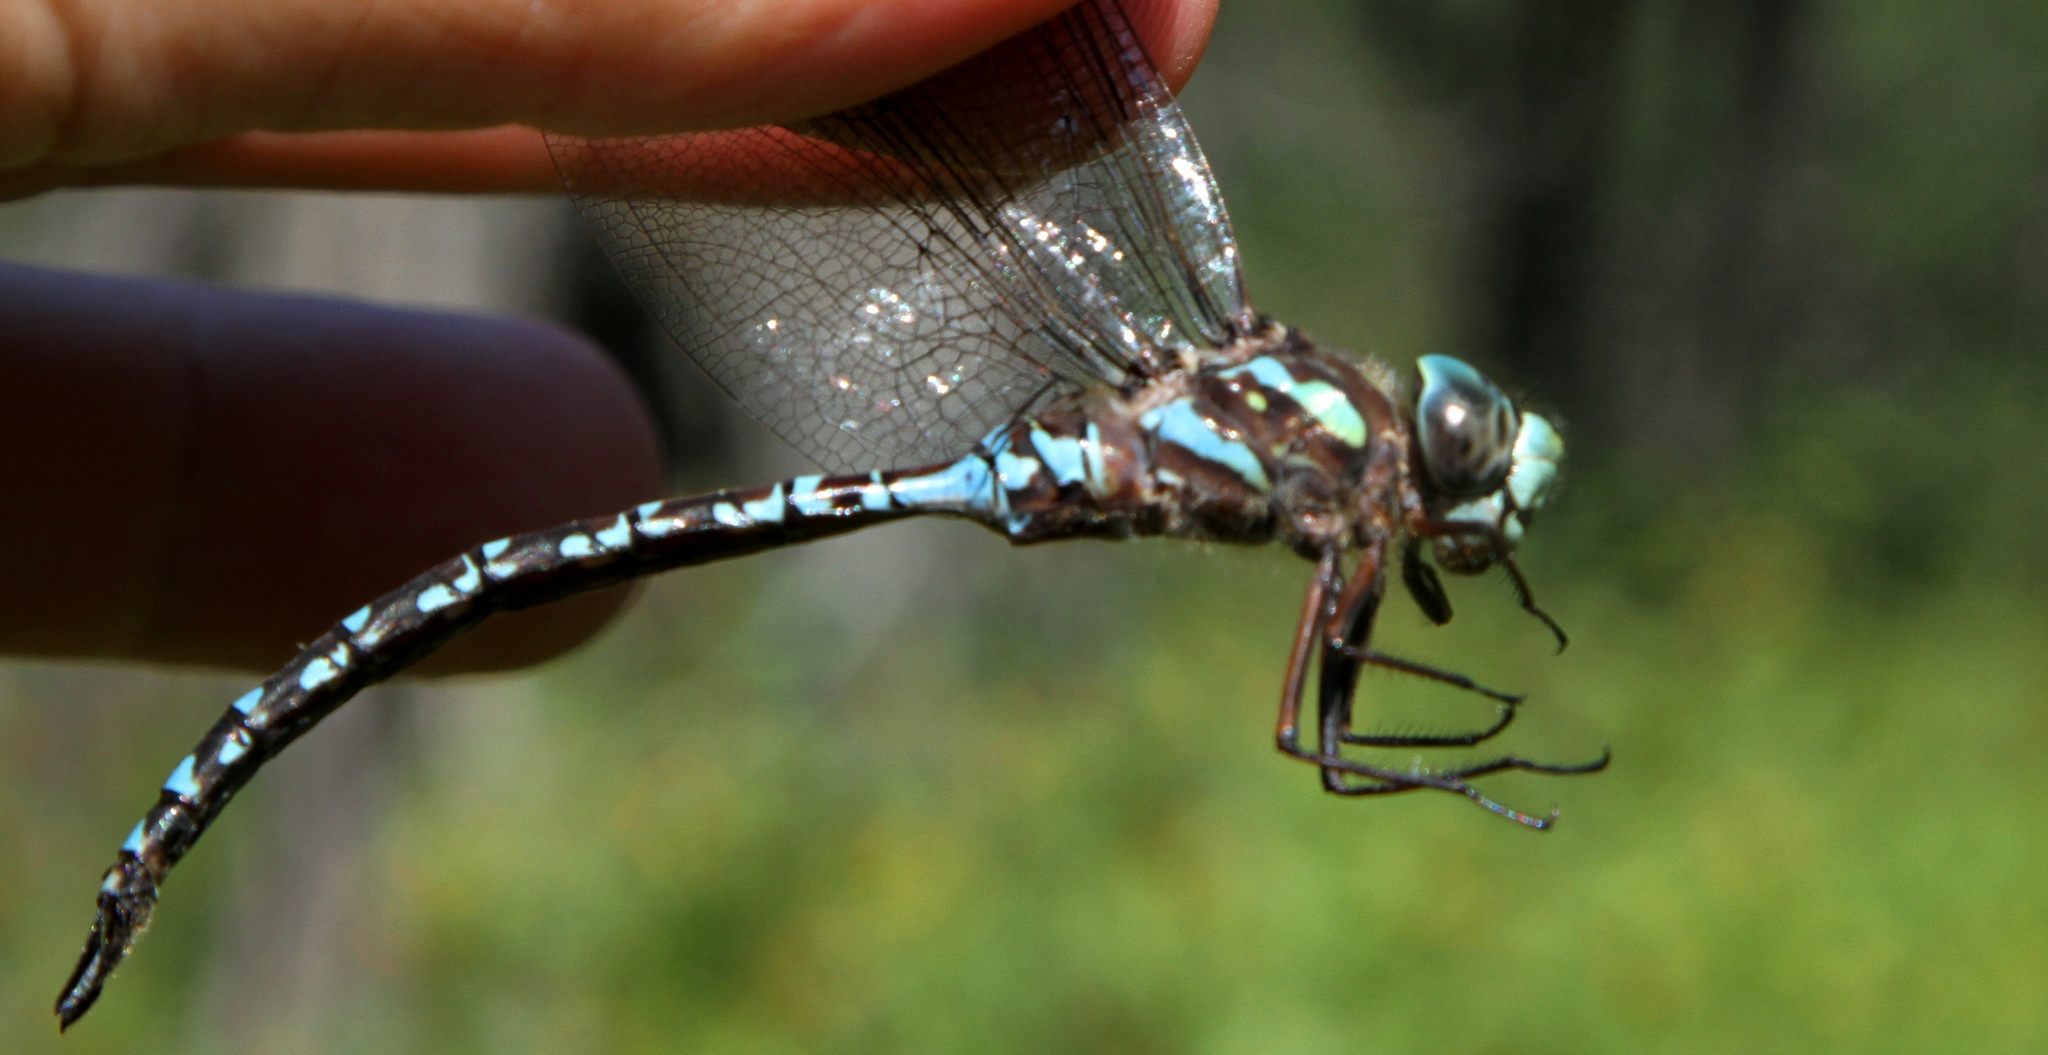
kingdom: Animalia
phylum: Arthropoda
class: Insecta
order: Odonata
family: Aeshnidae
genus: Aeshna
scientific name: Aeshna canadensis
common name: Canada darner
